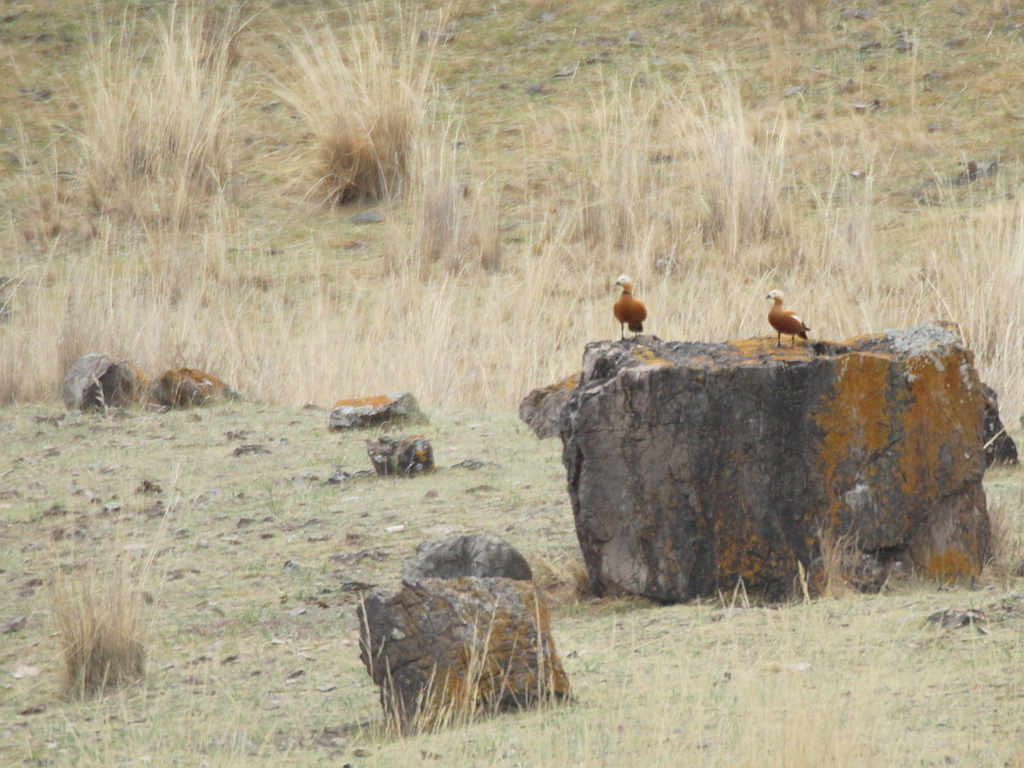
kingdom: Animalia
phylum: Chordata
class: Aves
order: Anseriformes
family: Anatidae
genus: Tadorna
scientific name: Tadorna ferruginea
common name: Ruddy shelduck
